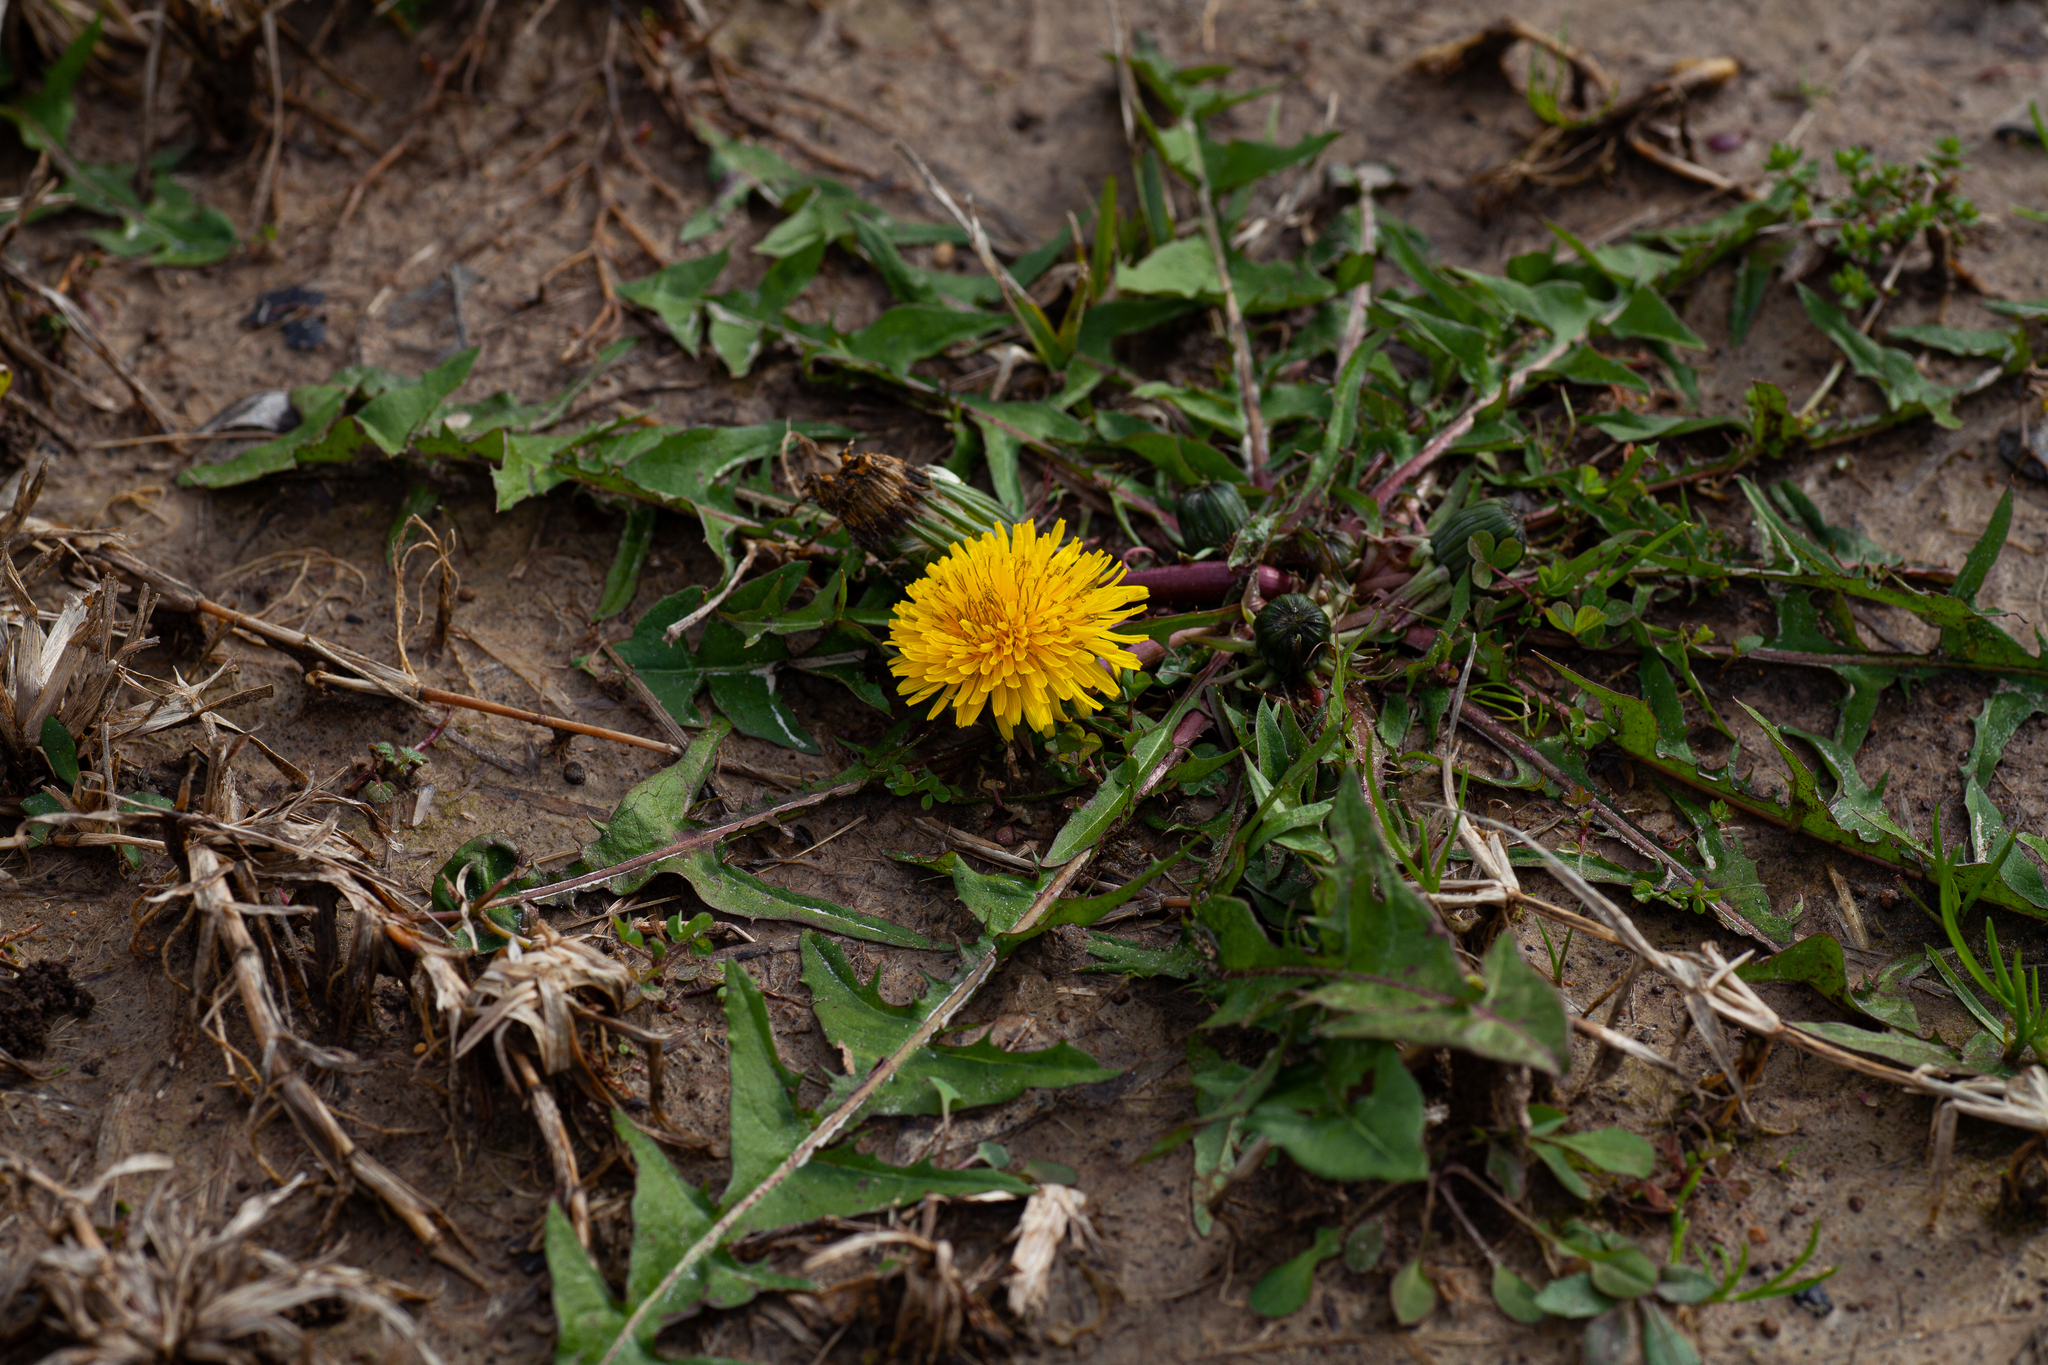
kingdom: Plantae
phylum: Tracheophyta
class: Magnoliopsida
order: Asterales
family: Asteraceae
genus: Taraxacum
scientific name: Taraxacum officinale
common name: Common dandelion
